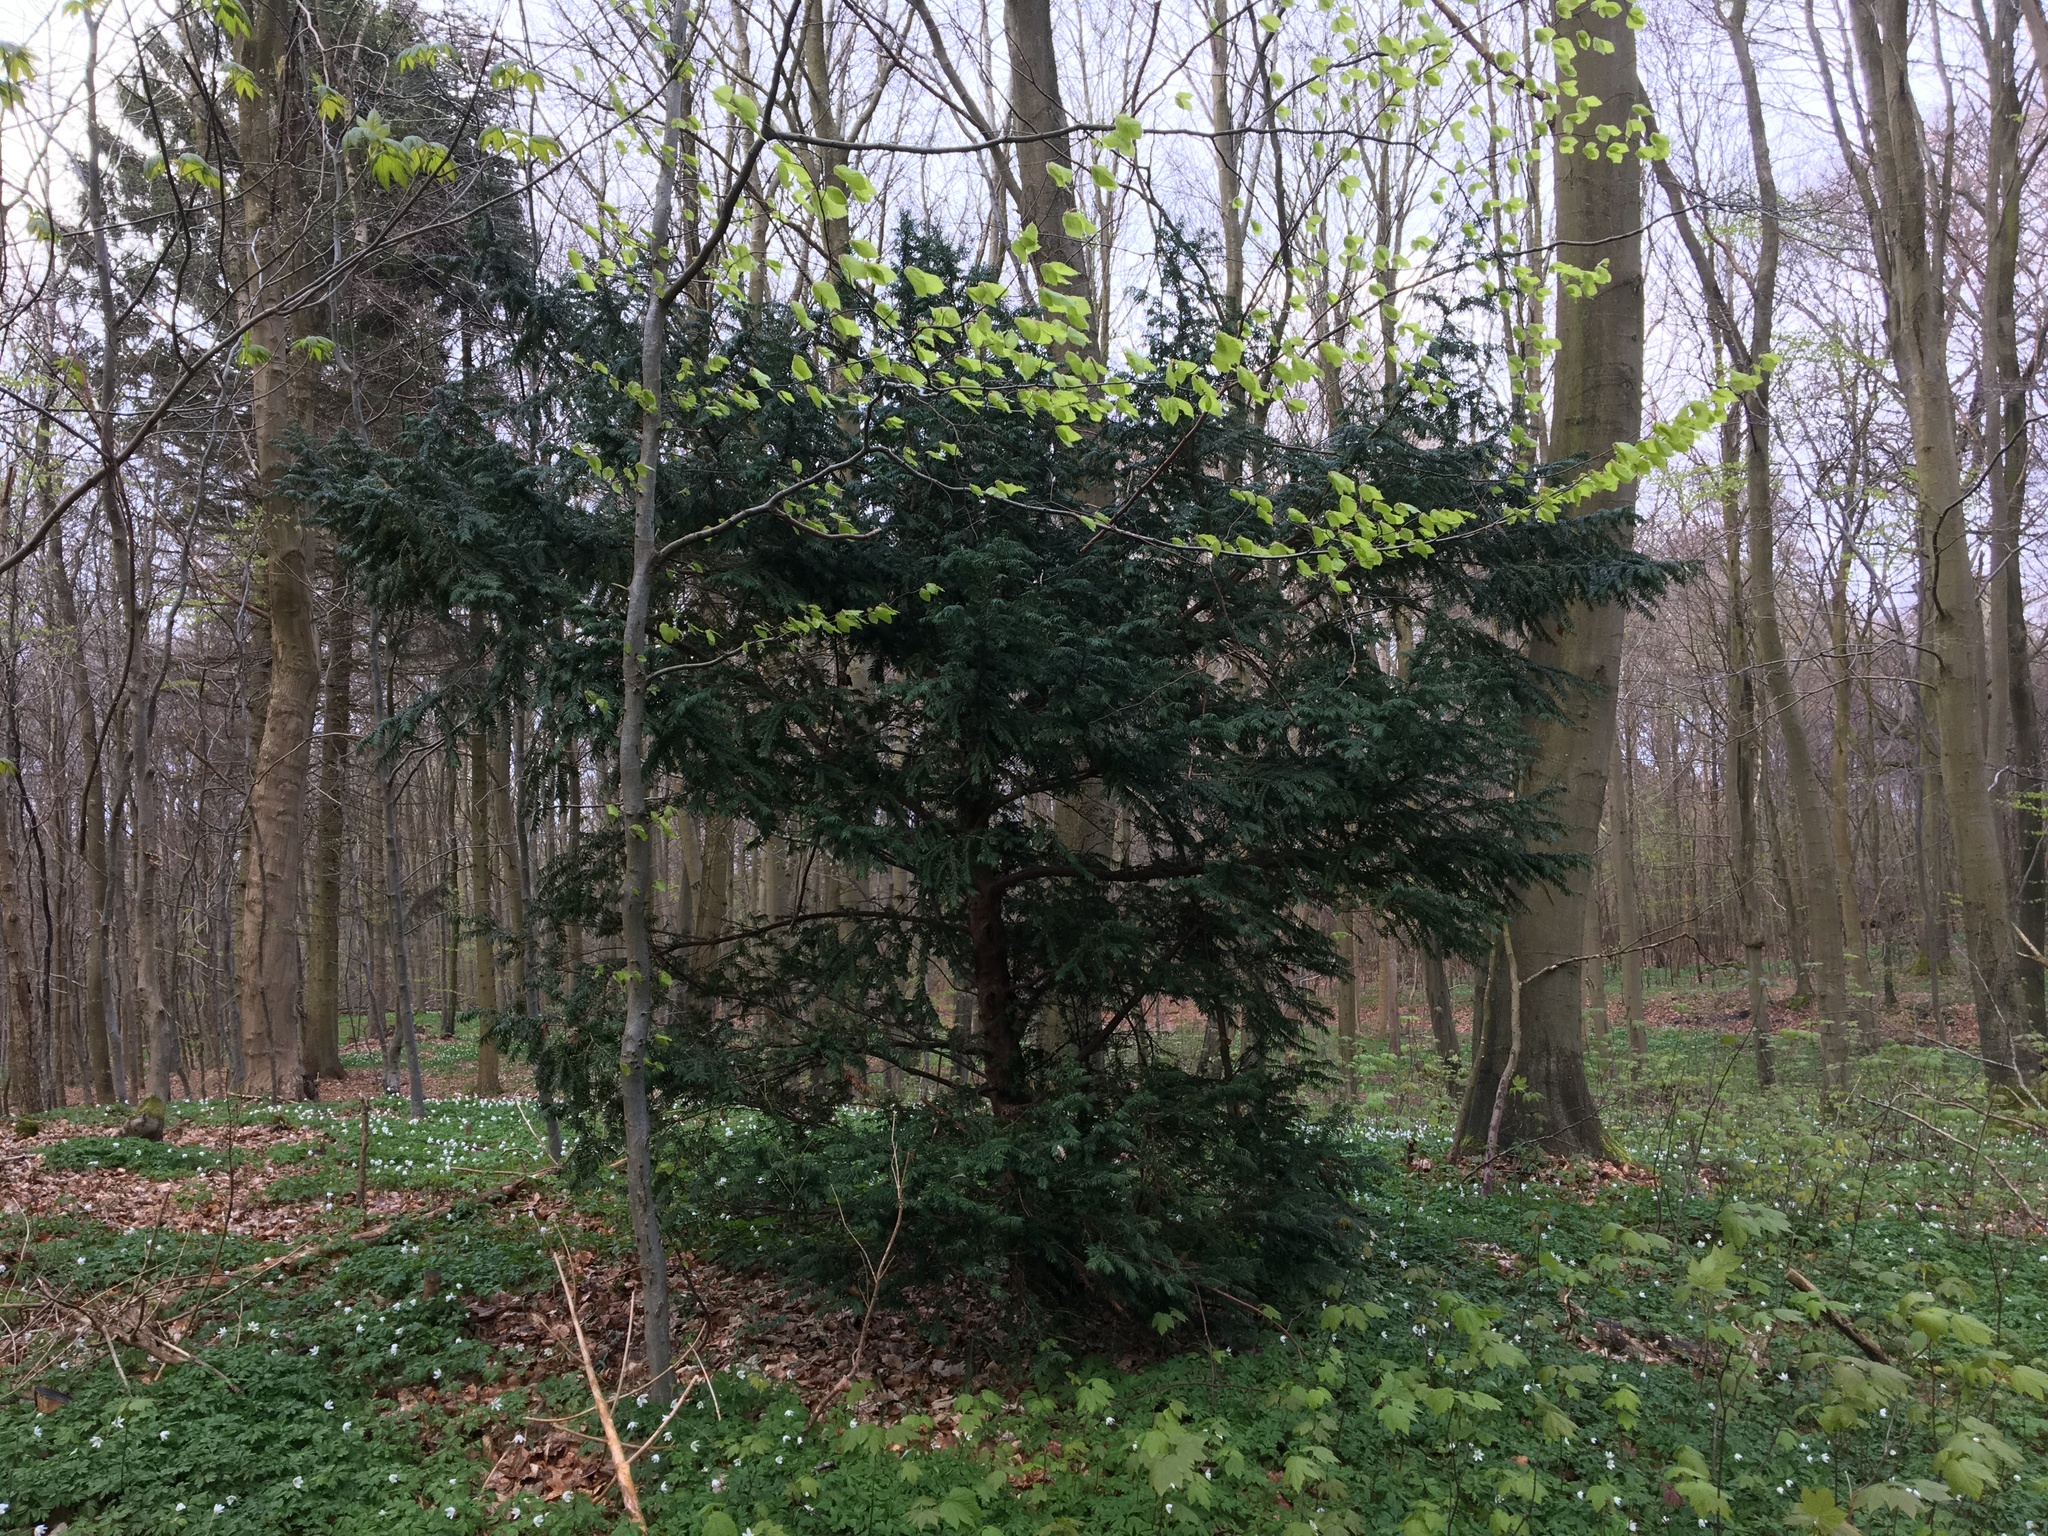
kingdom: Plantae
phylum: Tracheophyta
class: Pinopsida
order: Pinales
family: Taxaceae
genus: Taxus
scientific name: Taxus baccata
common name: Yew
